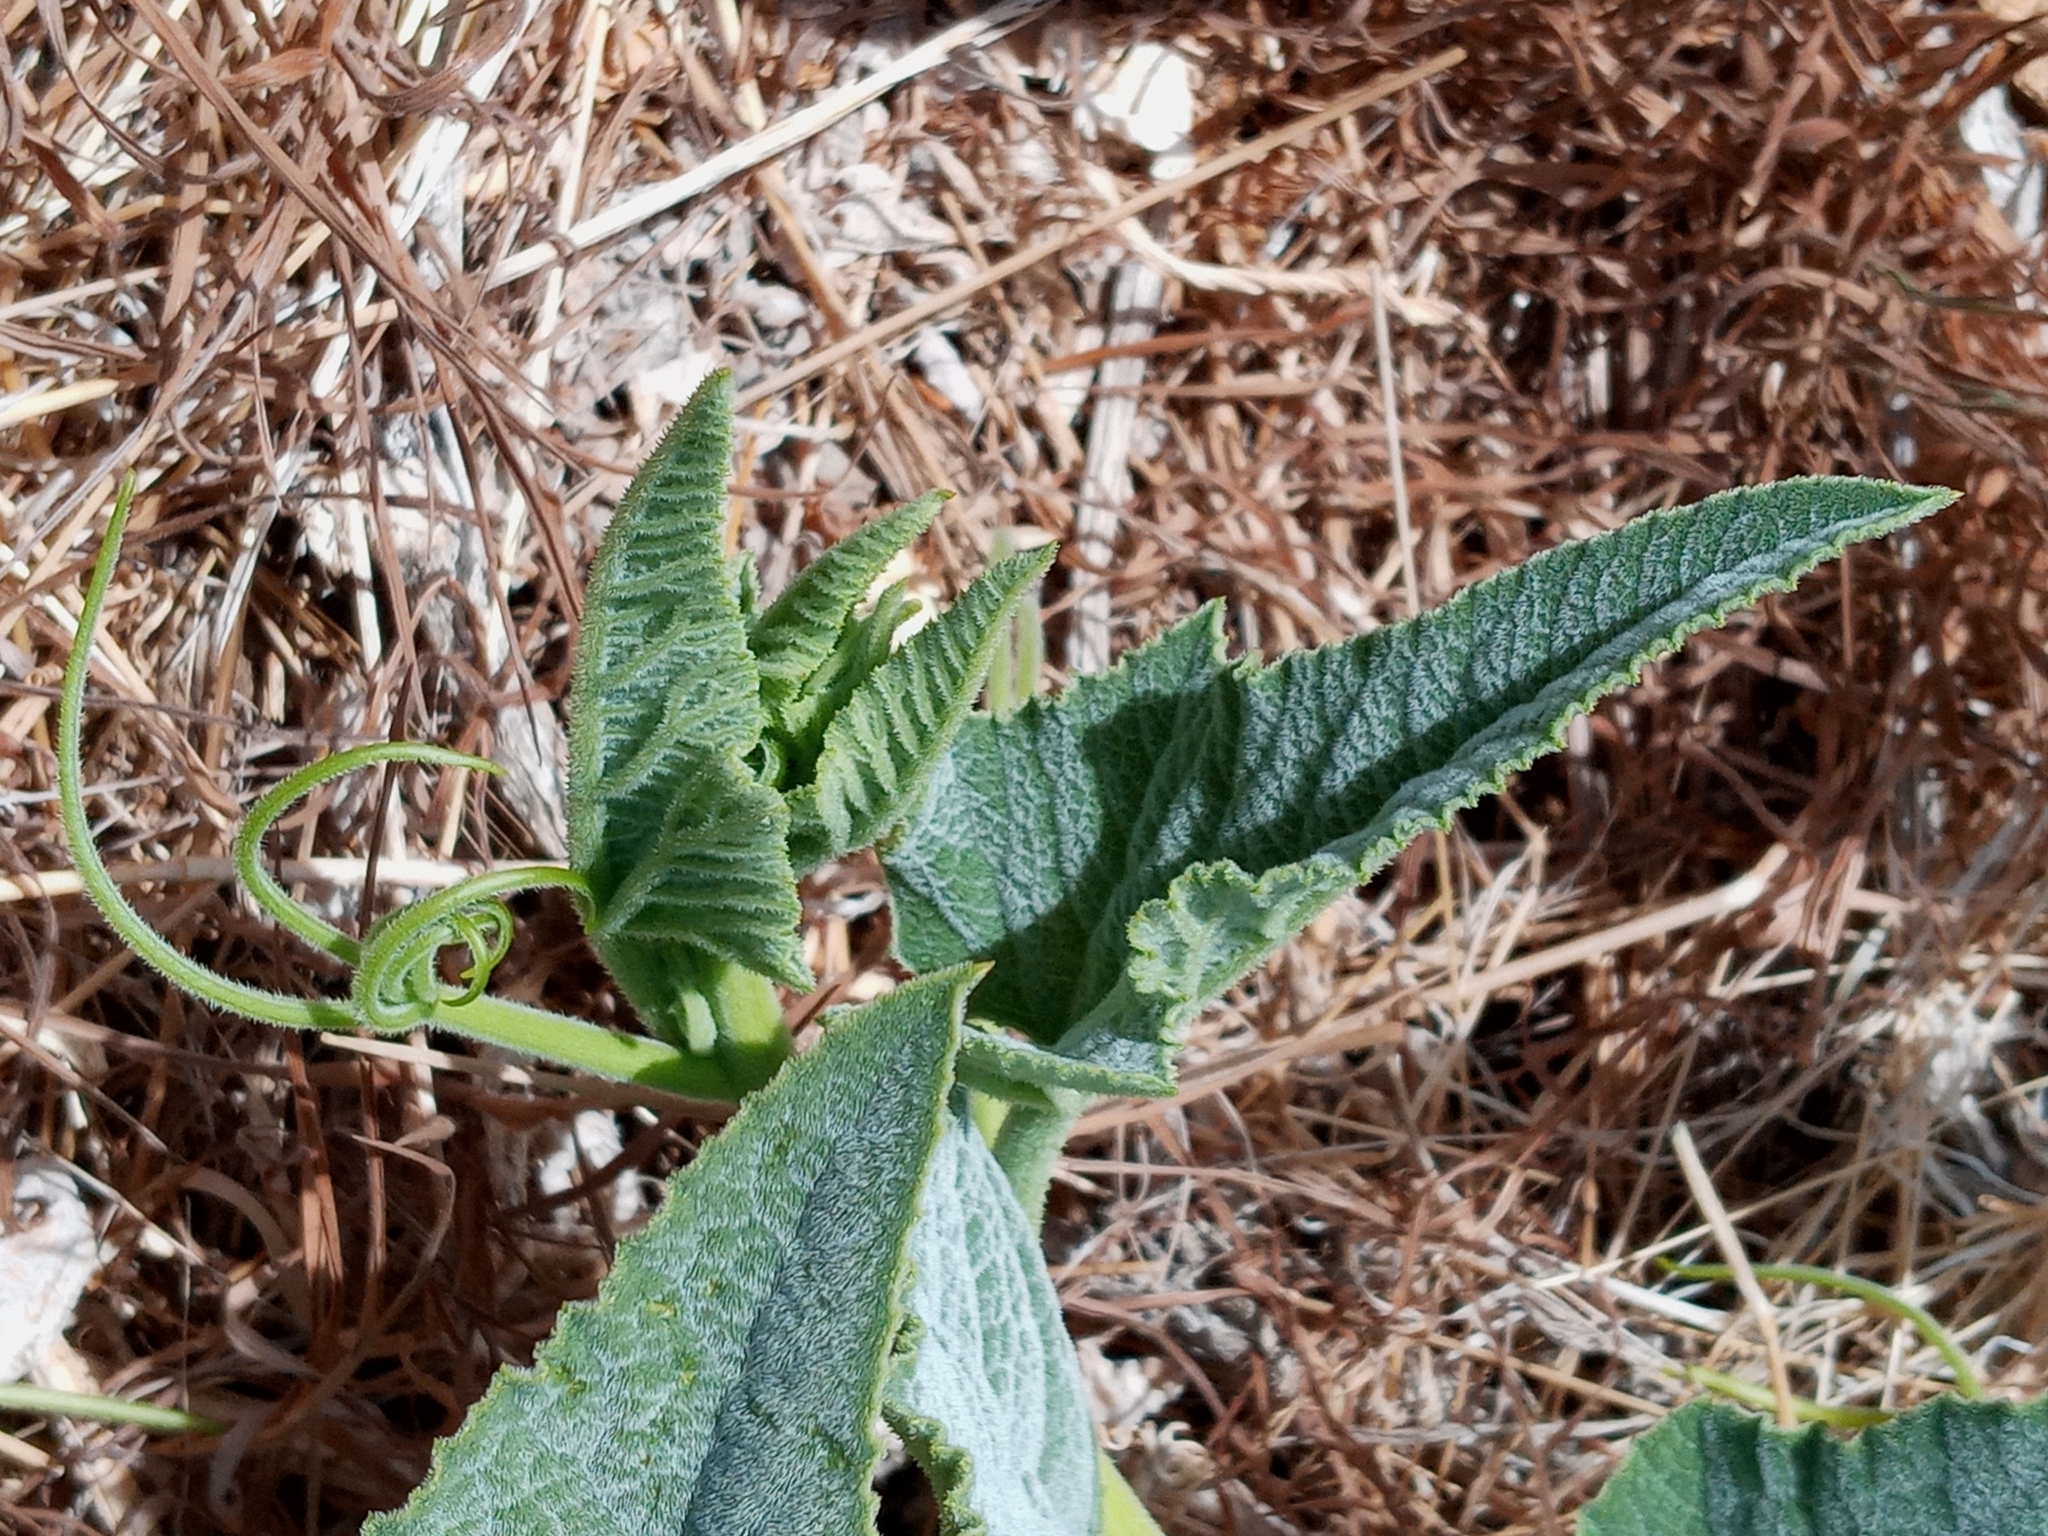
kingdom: Plantae
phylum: Tracheophyta
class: Magnoliopsida
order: Cucurbitales
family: Cucurbitaceae
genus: Cucurbita
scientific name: Cucurbita foetidissima
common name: Buffalo gourd
